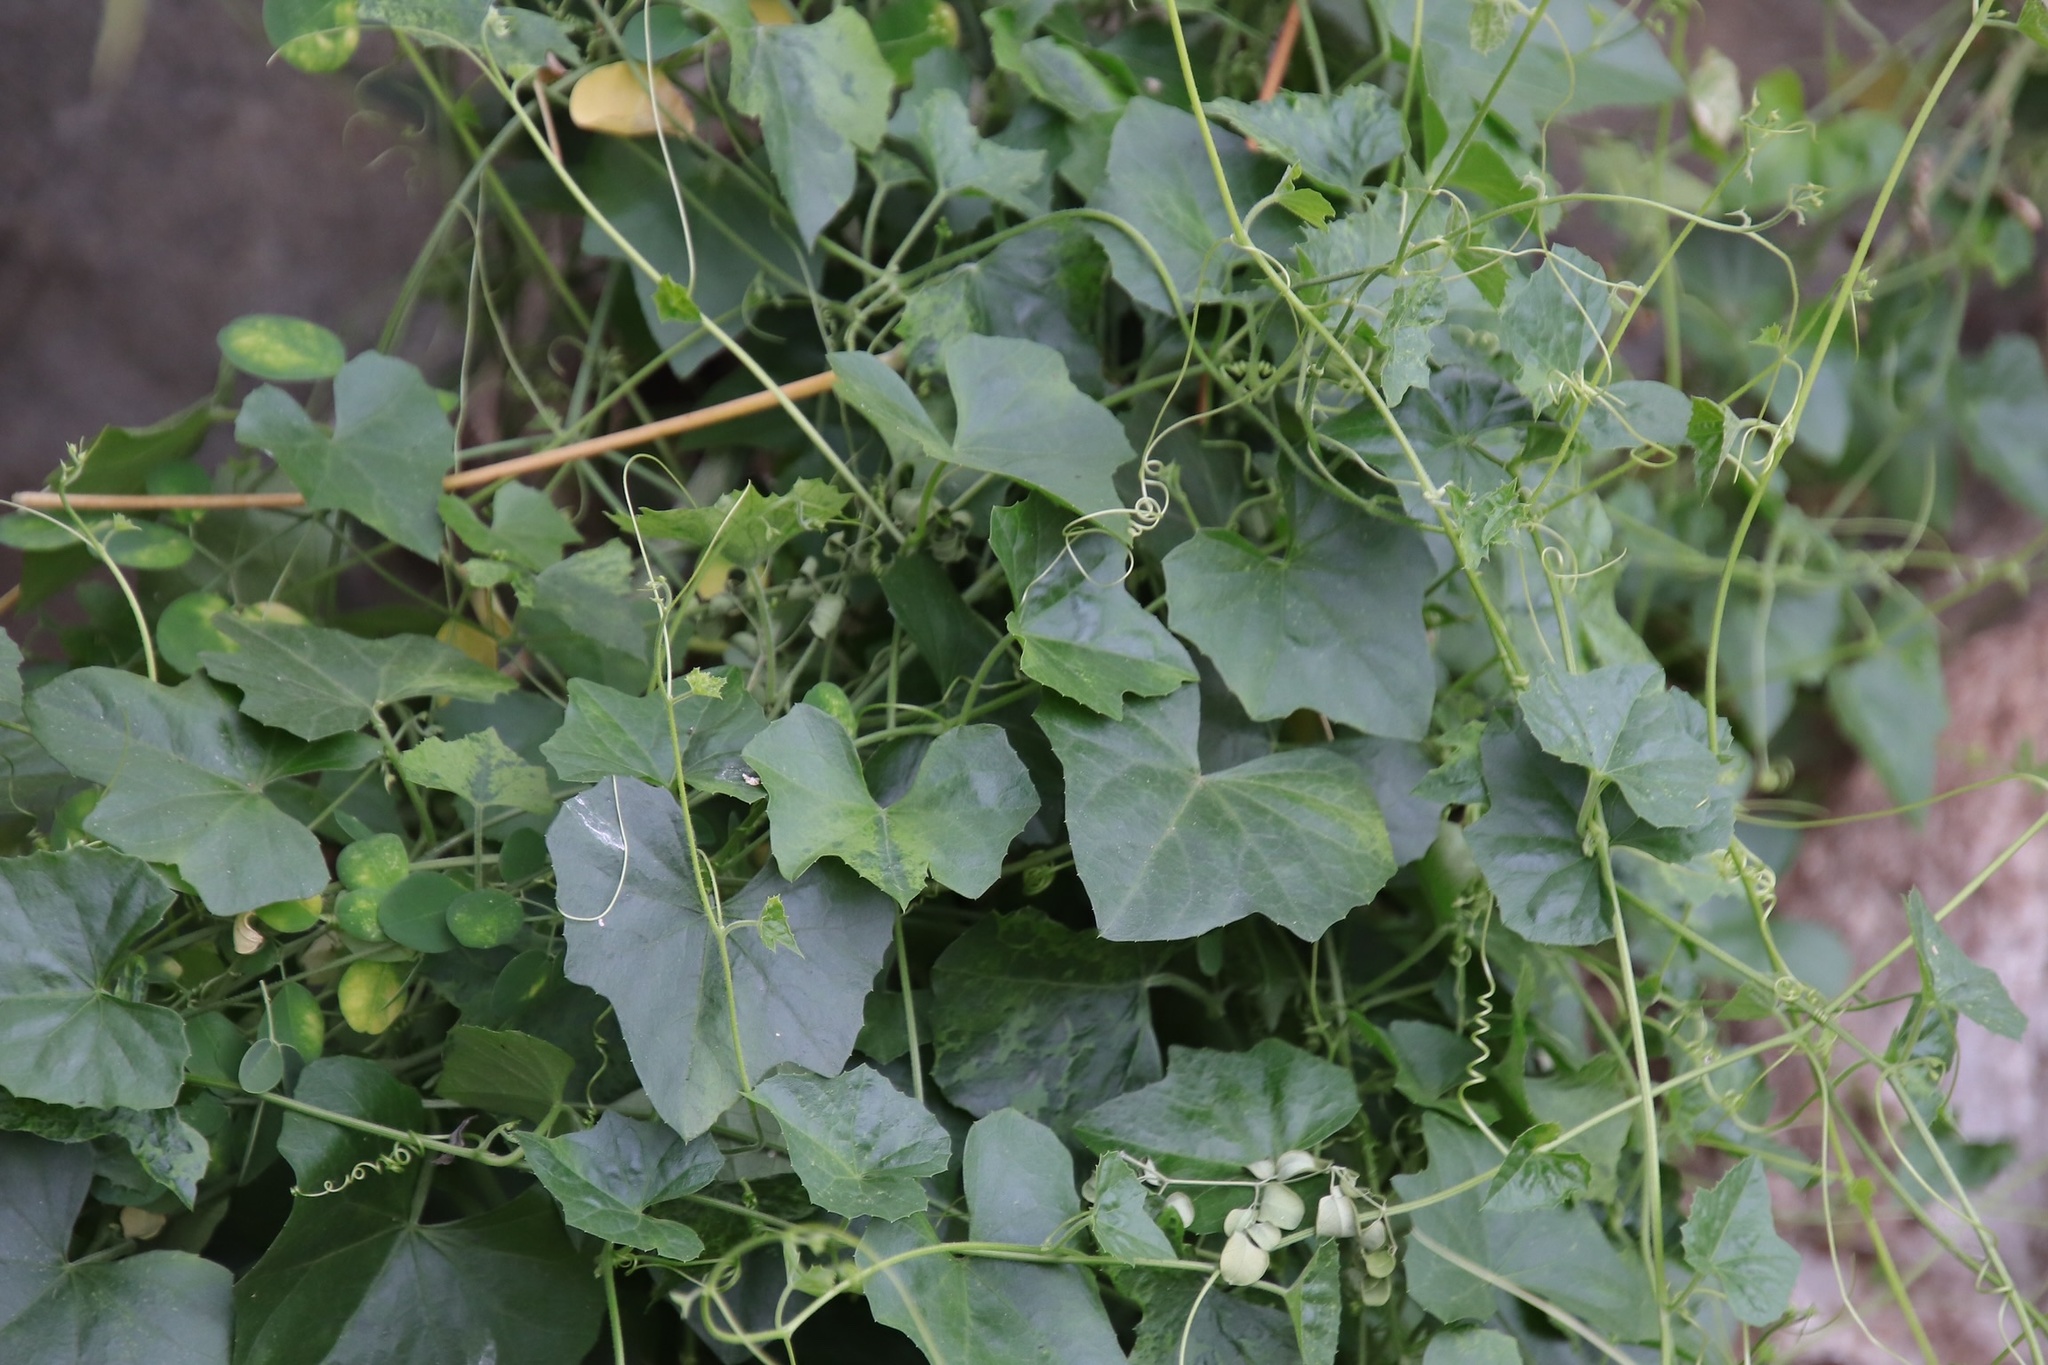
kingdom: Plantae
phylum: Tracheophyta
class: Magnoliopsida
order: Cucurbitales
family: Cucurbitaceae
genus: Melothria
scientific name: Melothria pendula
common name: Creeping-cucumber
